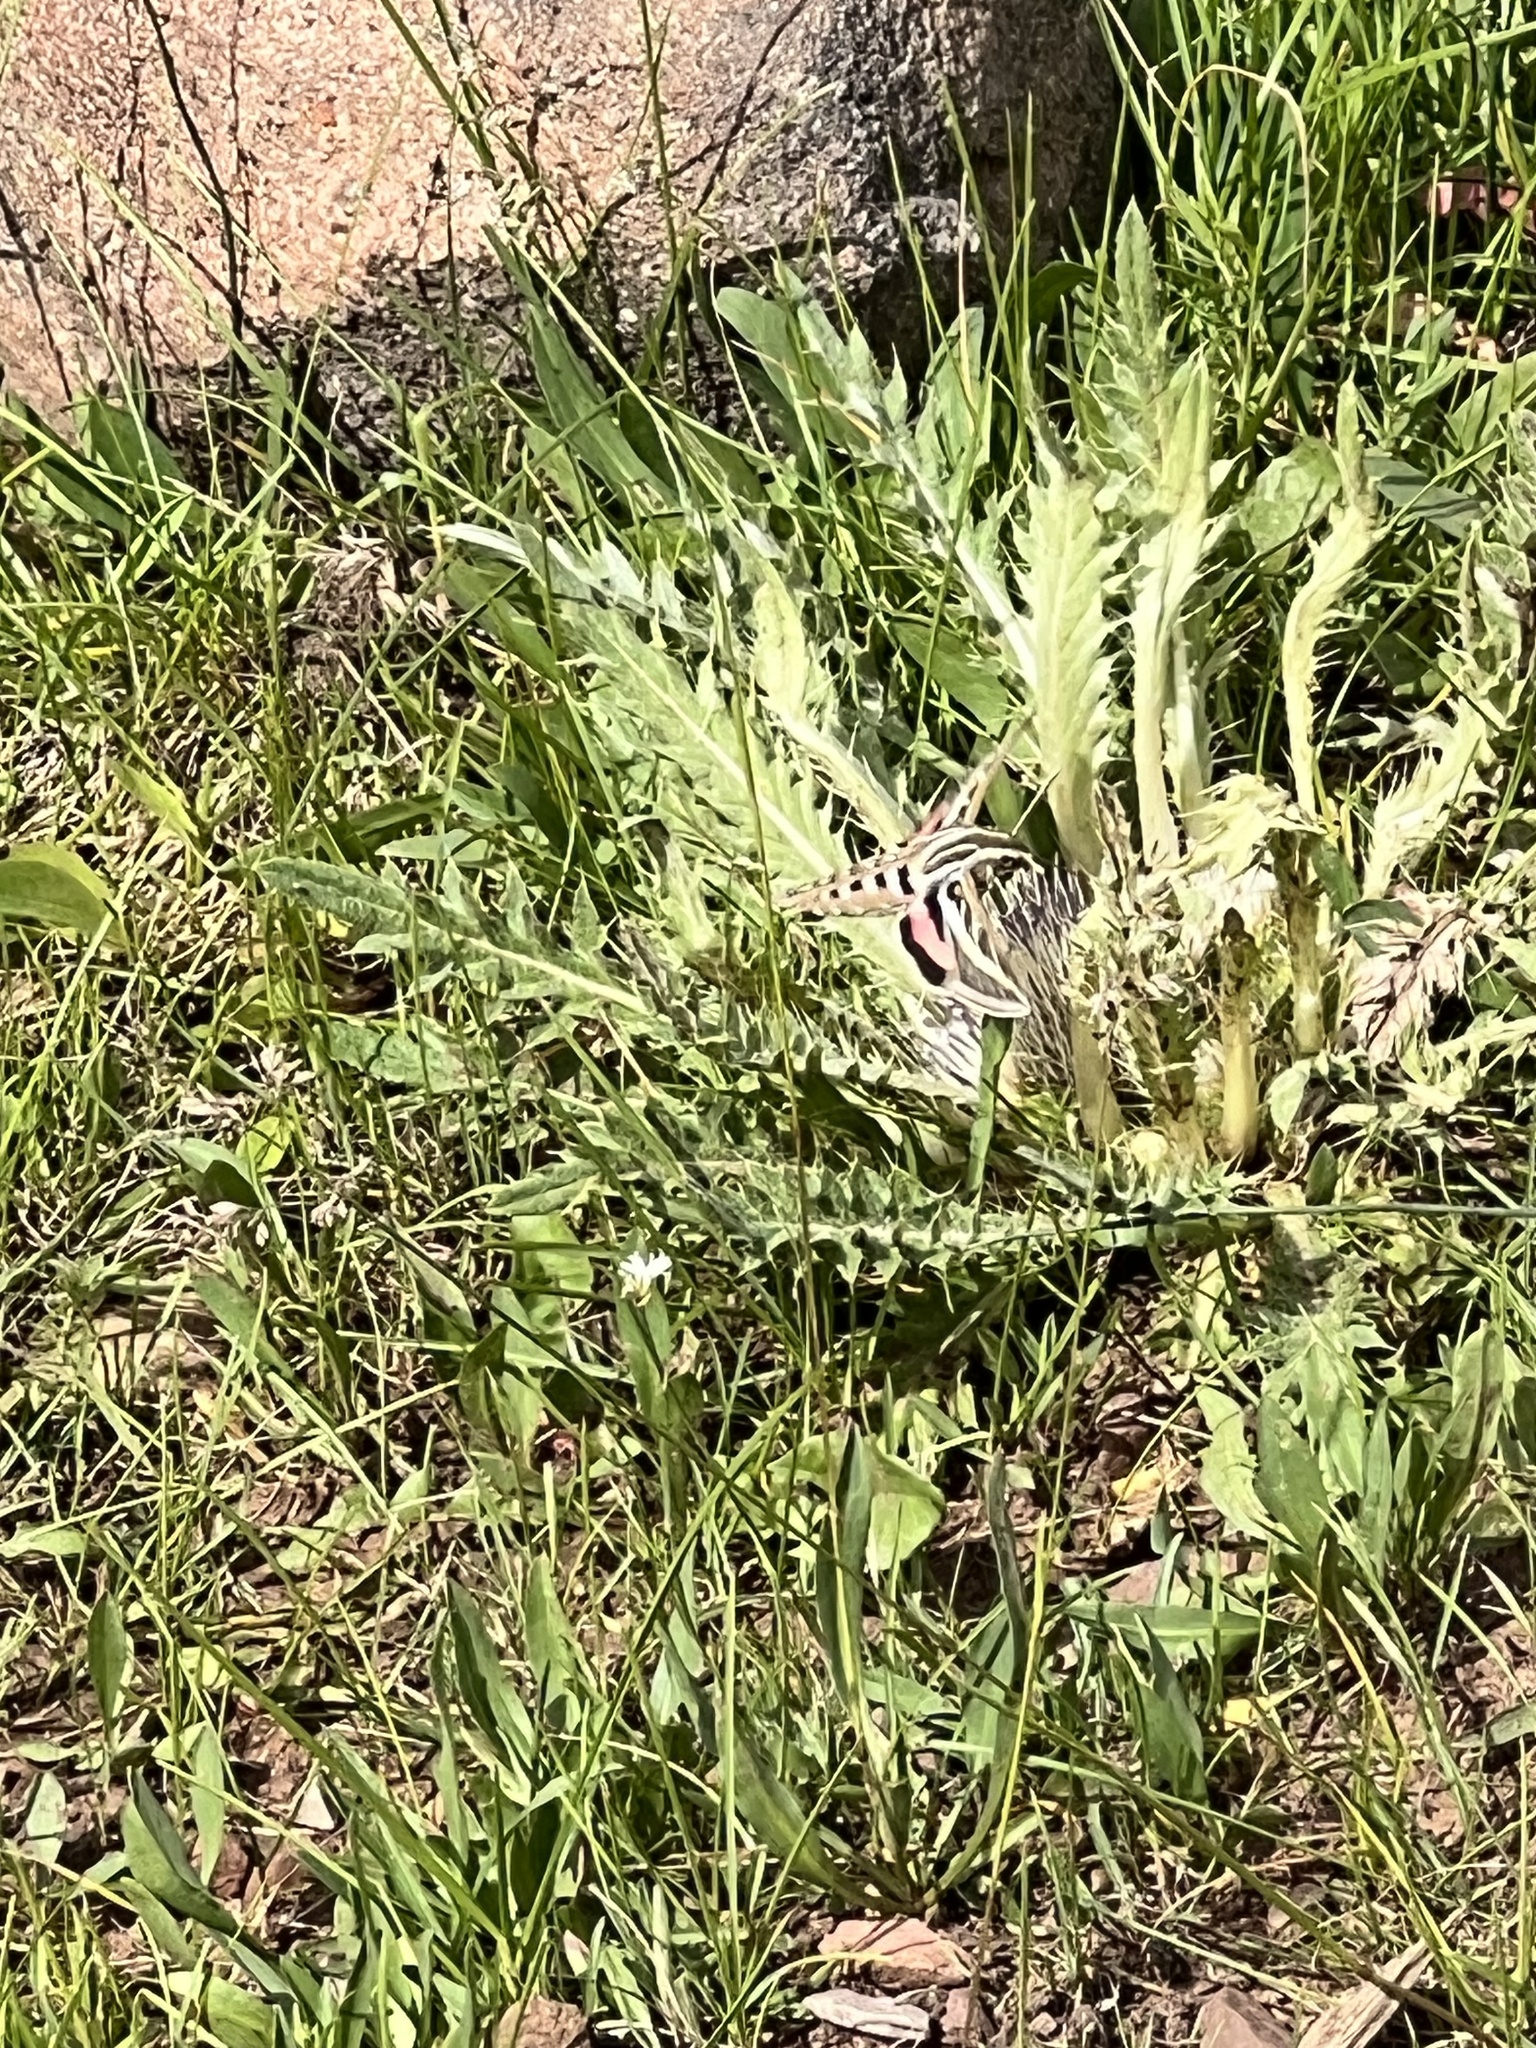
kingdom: Animalia
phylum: Arthropoda
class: Insecta
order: Lepidoptera
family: Sphingidae
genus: Hyles
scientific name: Hyles lineata
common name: White-lined sphinx
